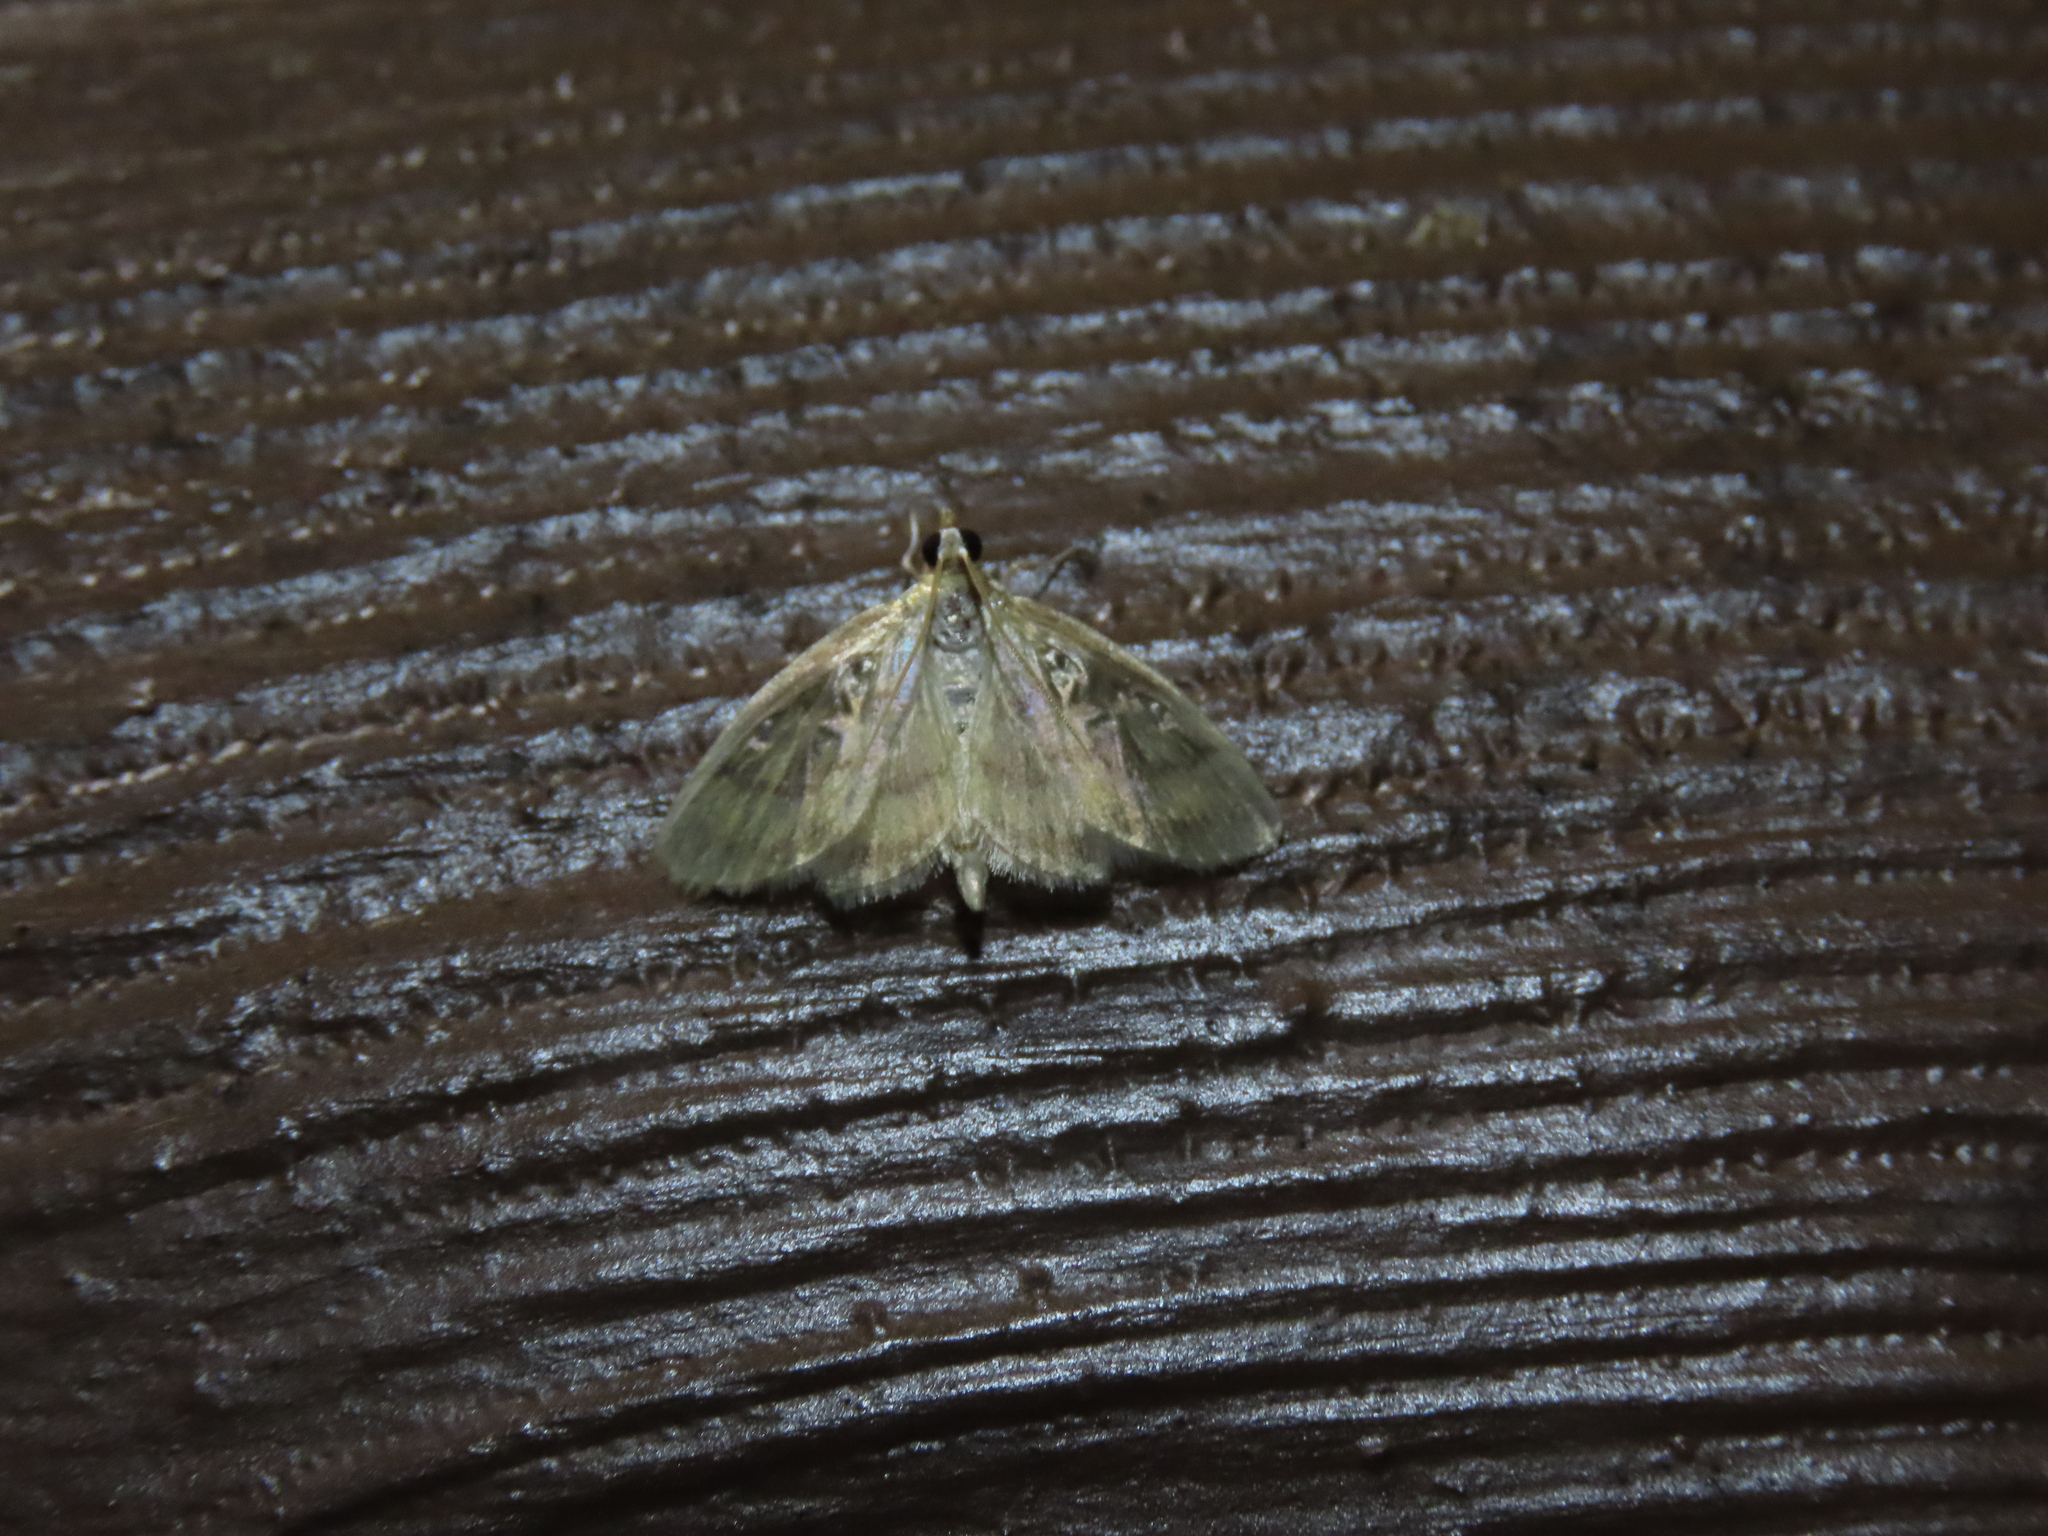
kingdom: Animalia
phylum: Arthropoda
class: Insecta
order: Lepidoptera
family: Crambidae
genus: Crocidophora
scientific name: Crocidophora tuberculalis
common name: Pale-winged crocidiphora moth
